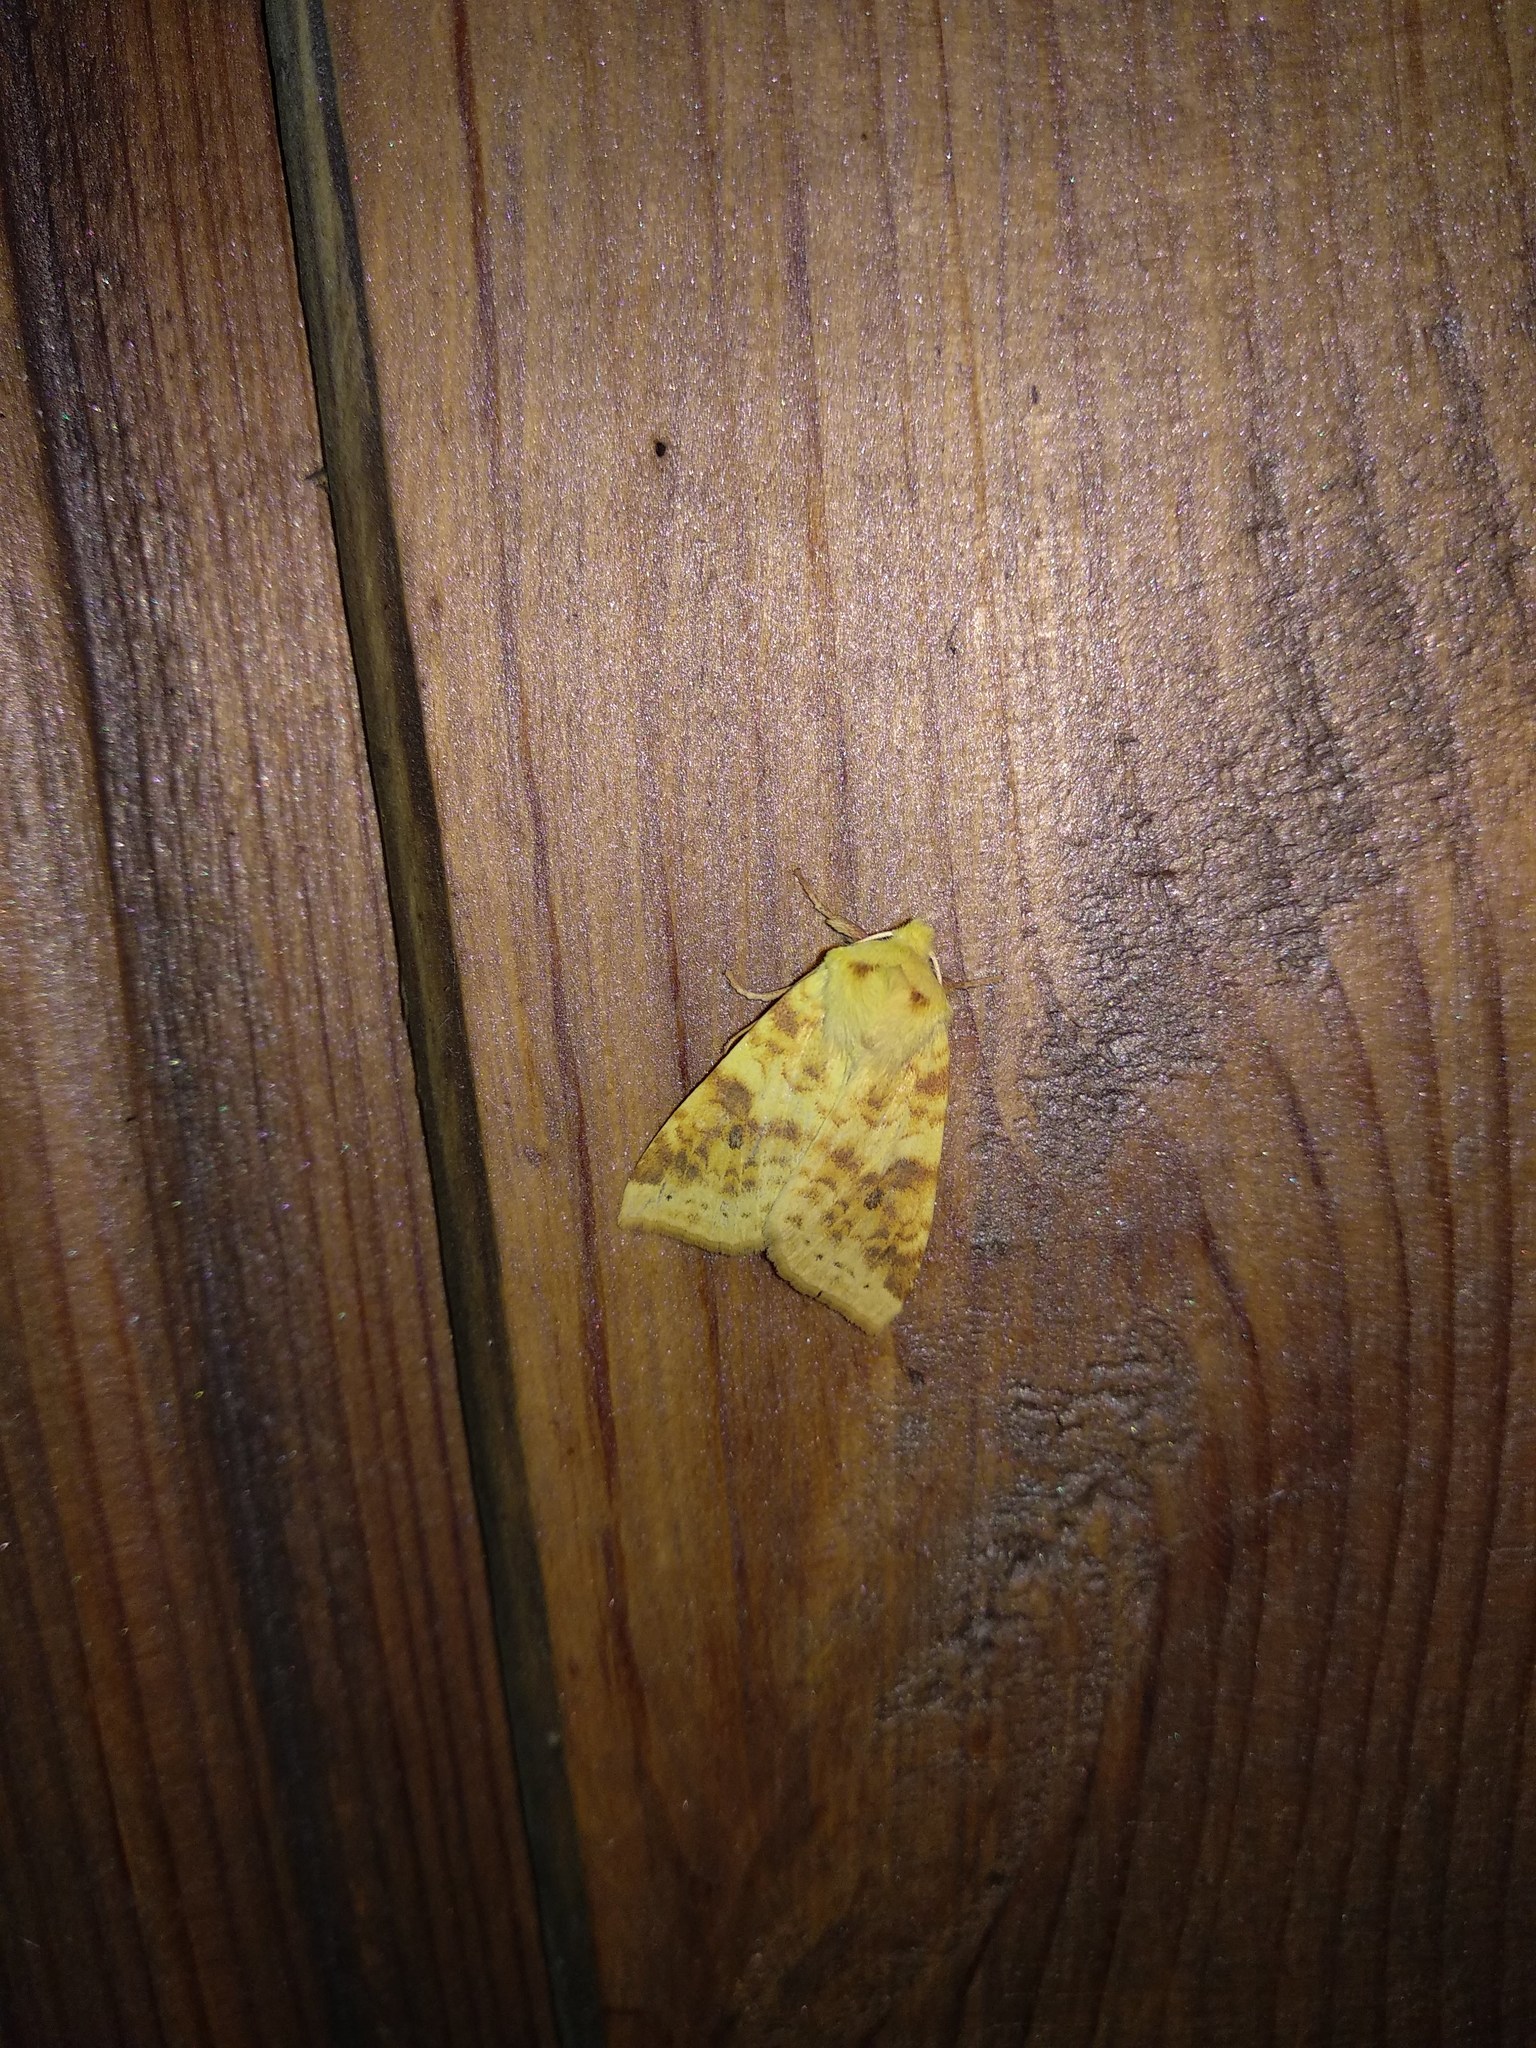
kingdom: Animalia
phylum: Arthropoda
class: Insecta
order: Lepidoptera
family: Noctuidae
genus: Xanthia
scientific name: Xanthia icteritia
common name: The sallow
